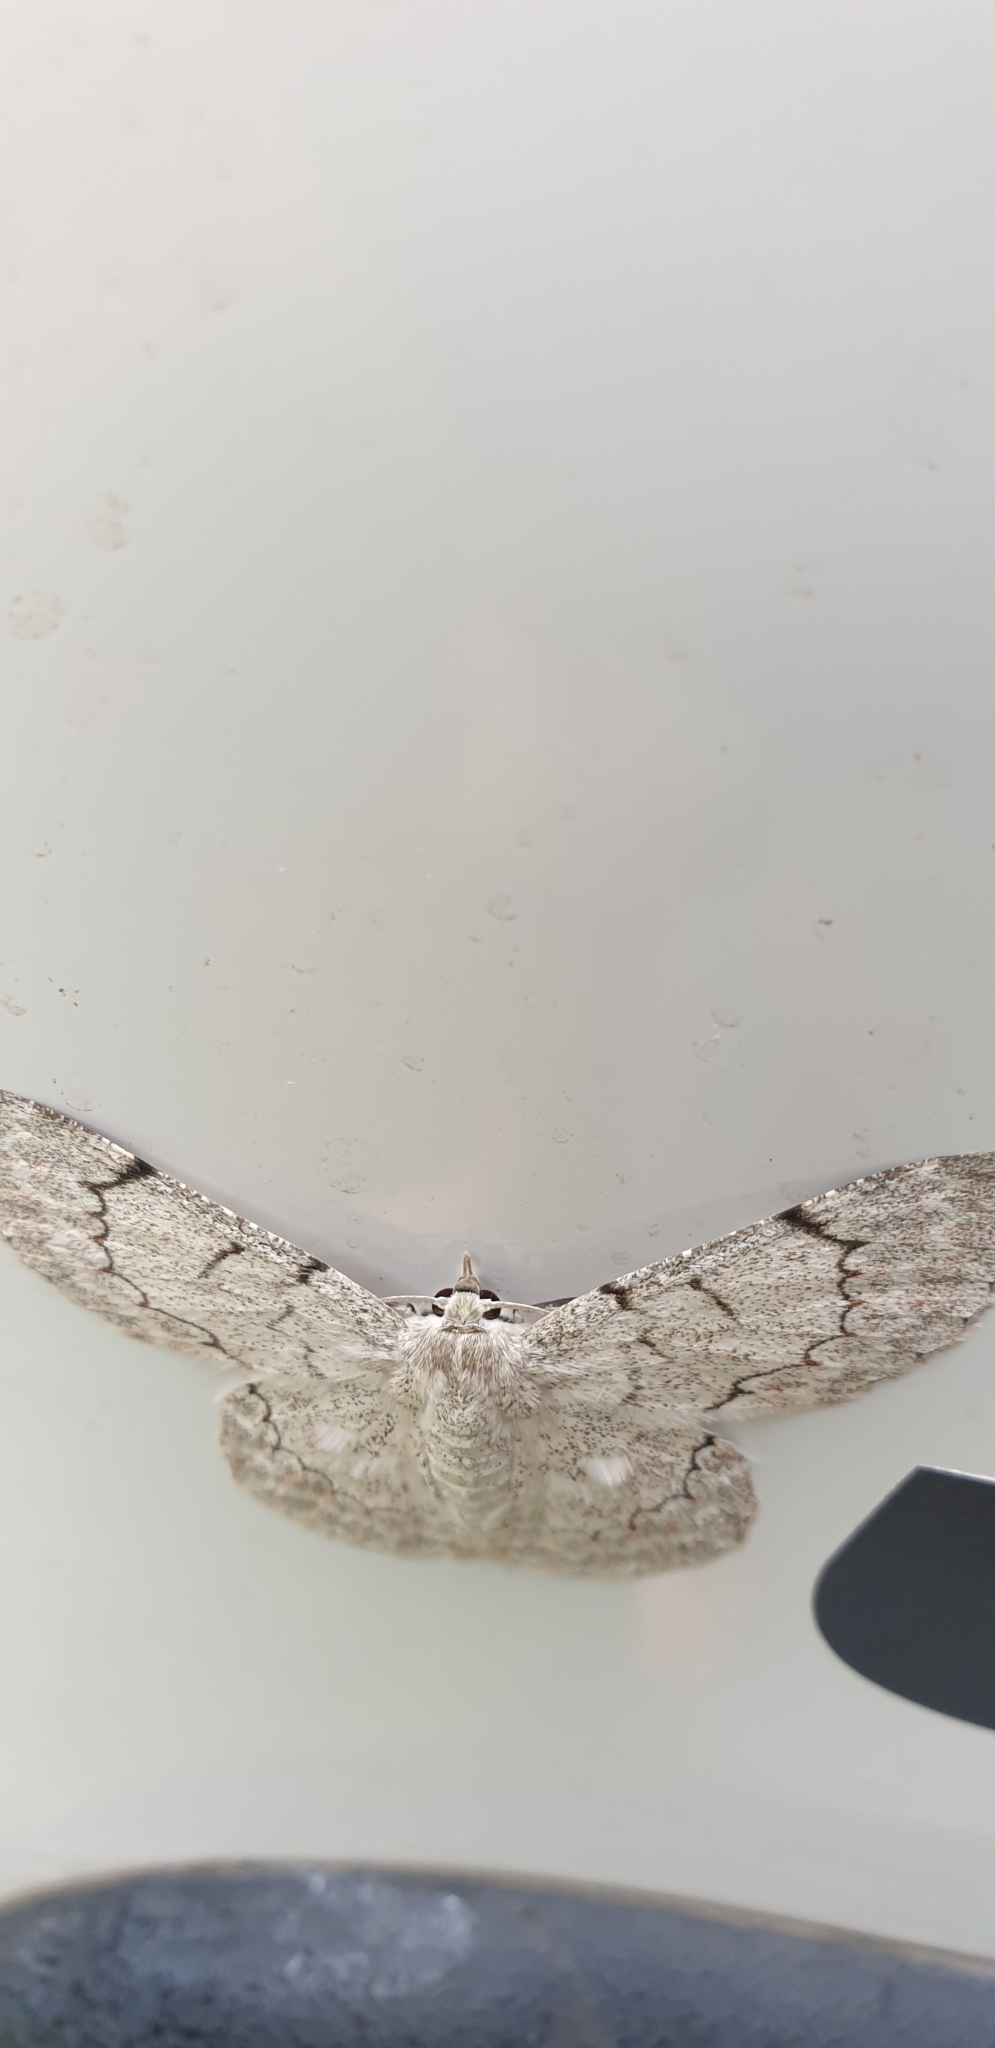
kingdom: Animalia
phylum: Arthropoda
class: Insecta
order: Lepidoptera
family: Geometridae
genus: Pingasa
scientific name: Pingasa chlora
